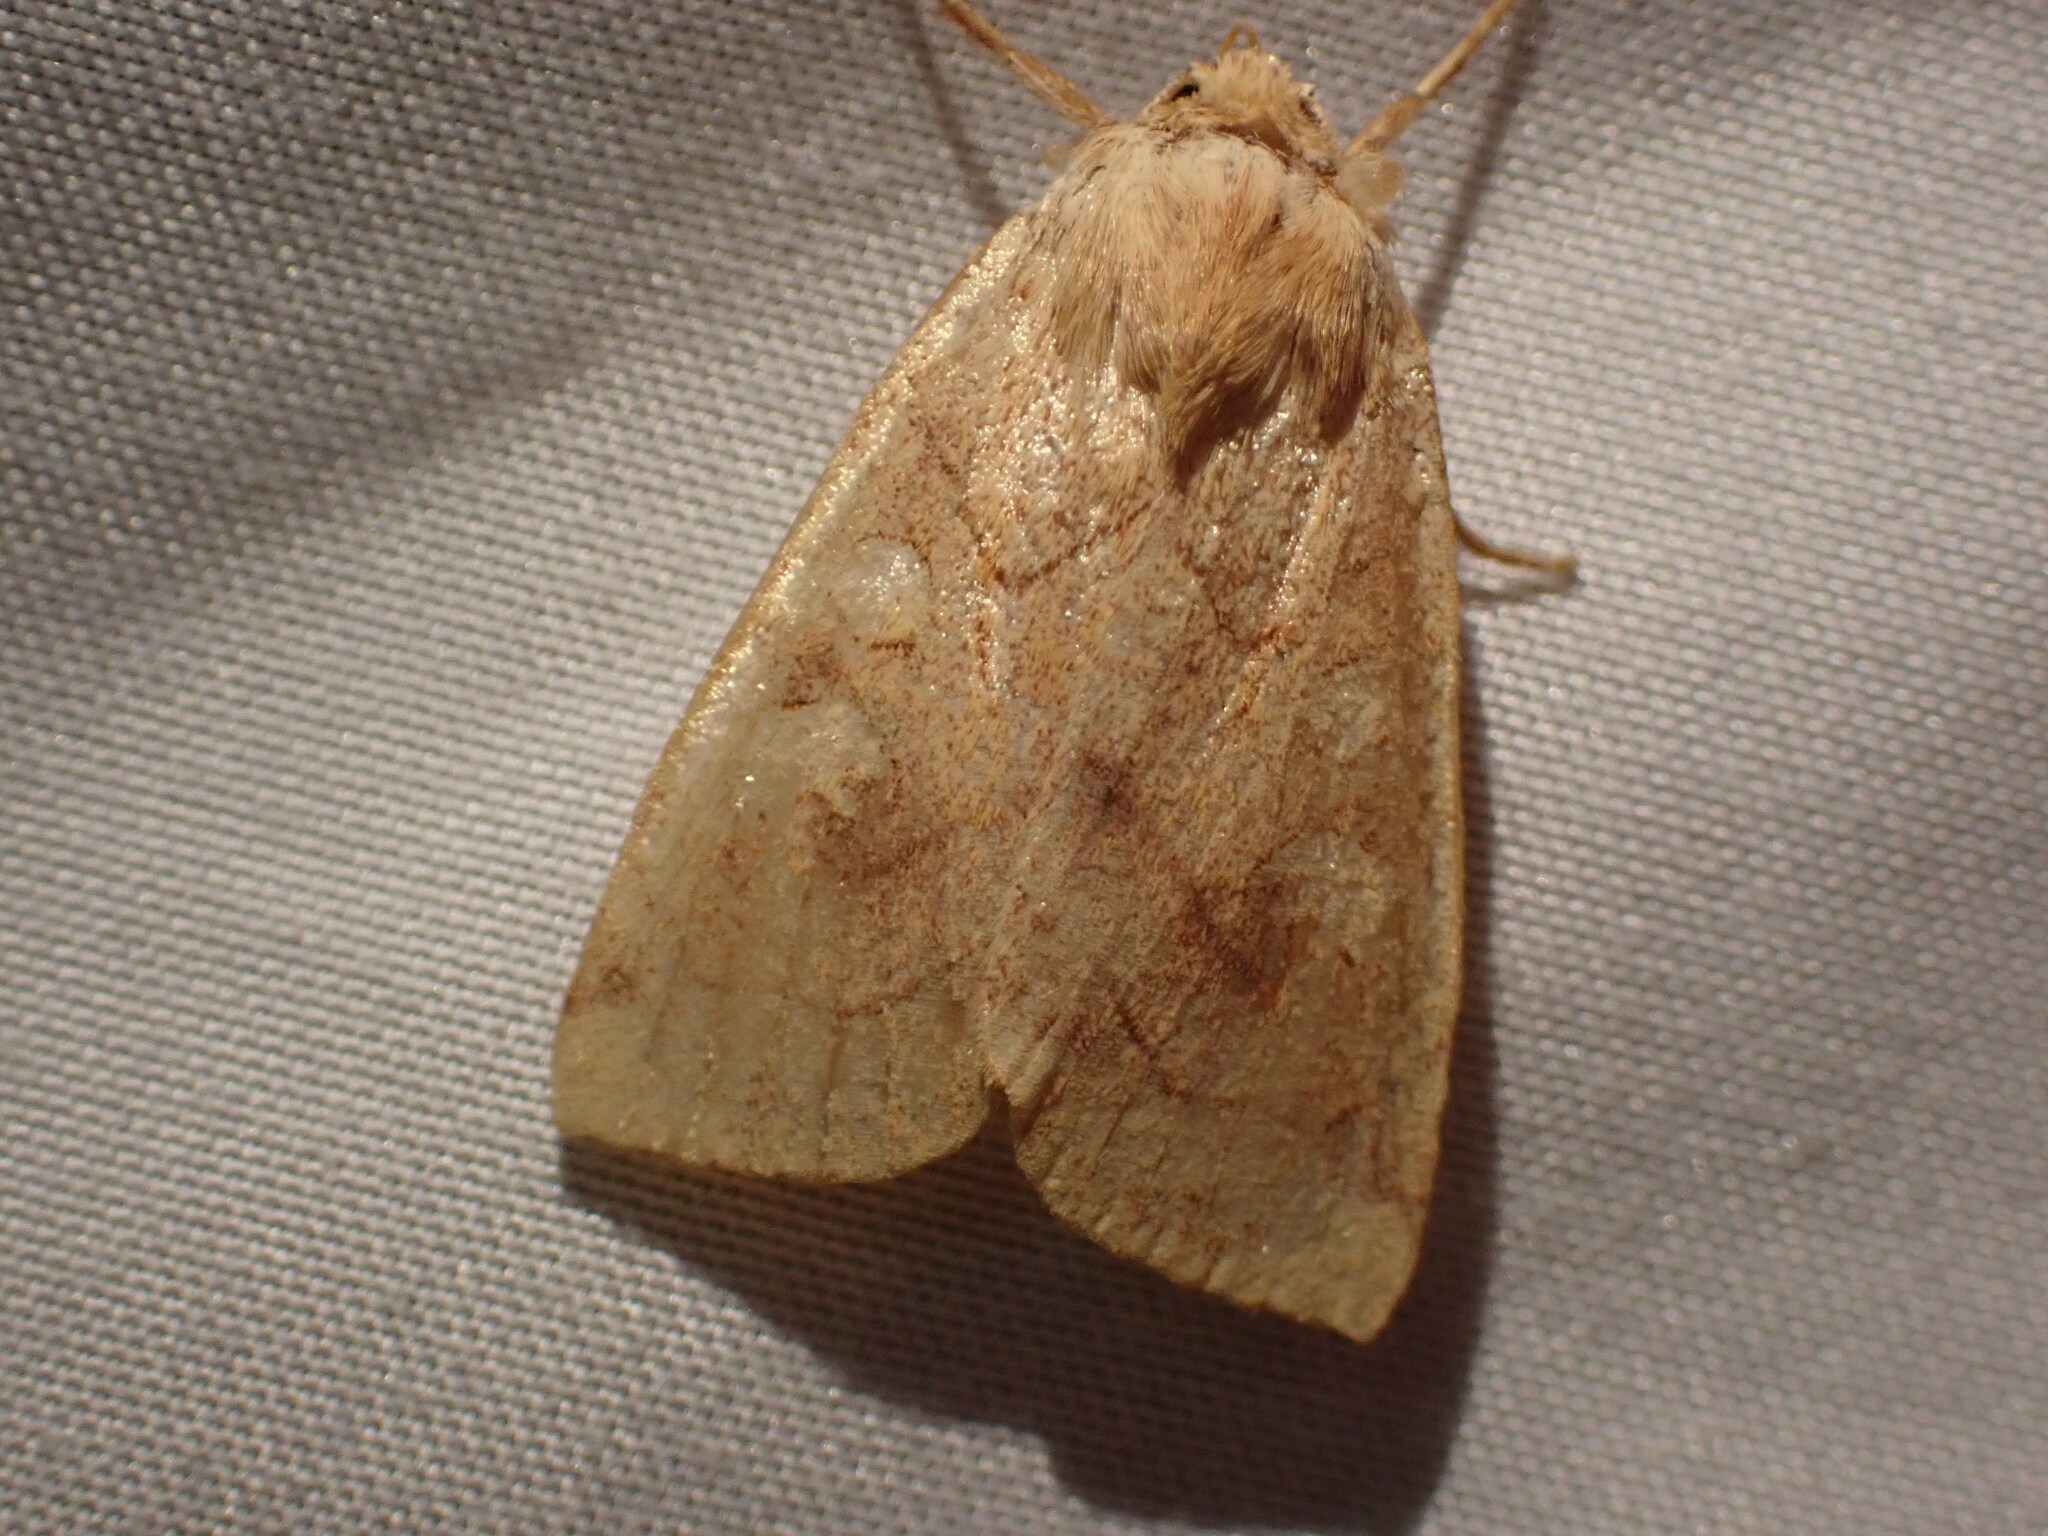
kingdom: Animalia
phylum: Arthropoda
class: Insecta
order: Lepidoptera
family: Noctuidae
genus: Enargia
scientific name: Enargia decolor
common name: Aspen twoleaf tier moth
